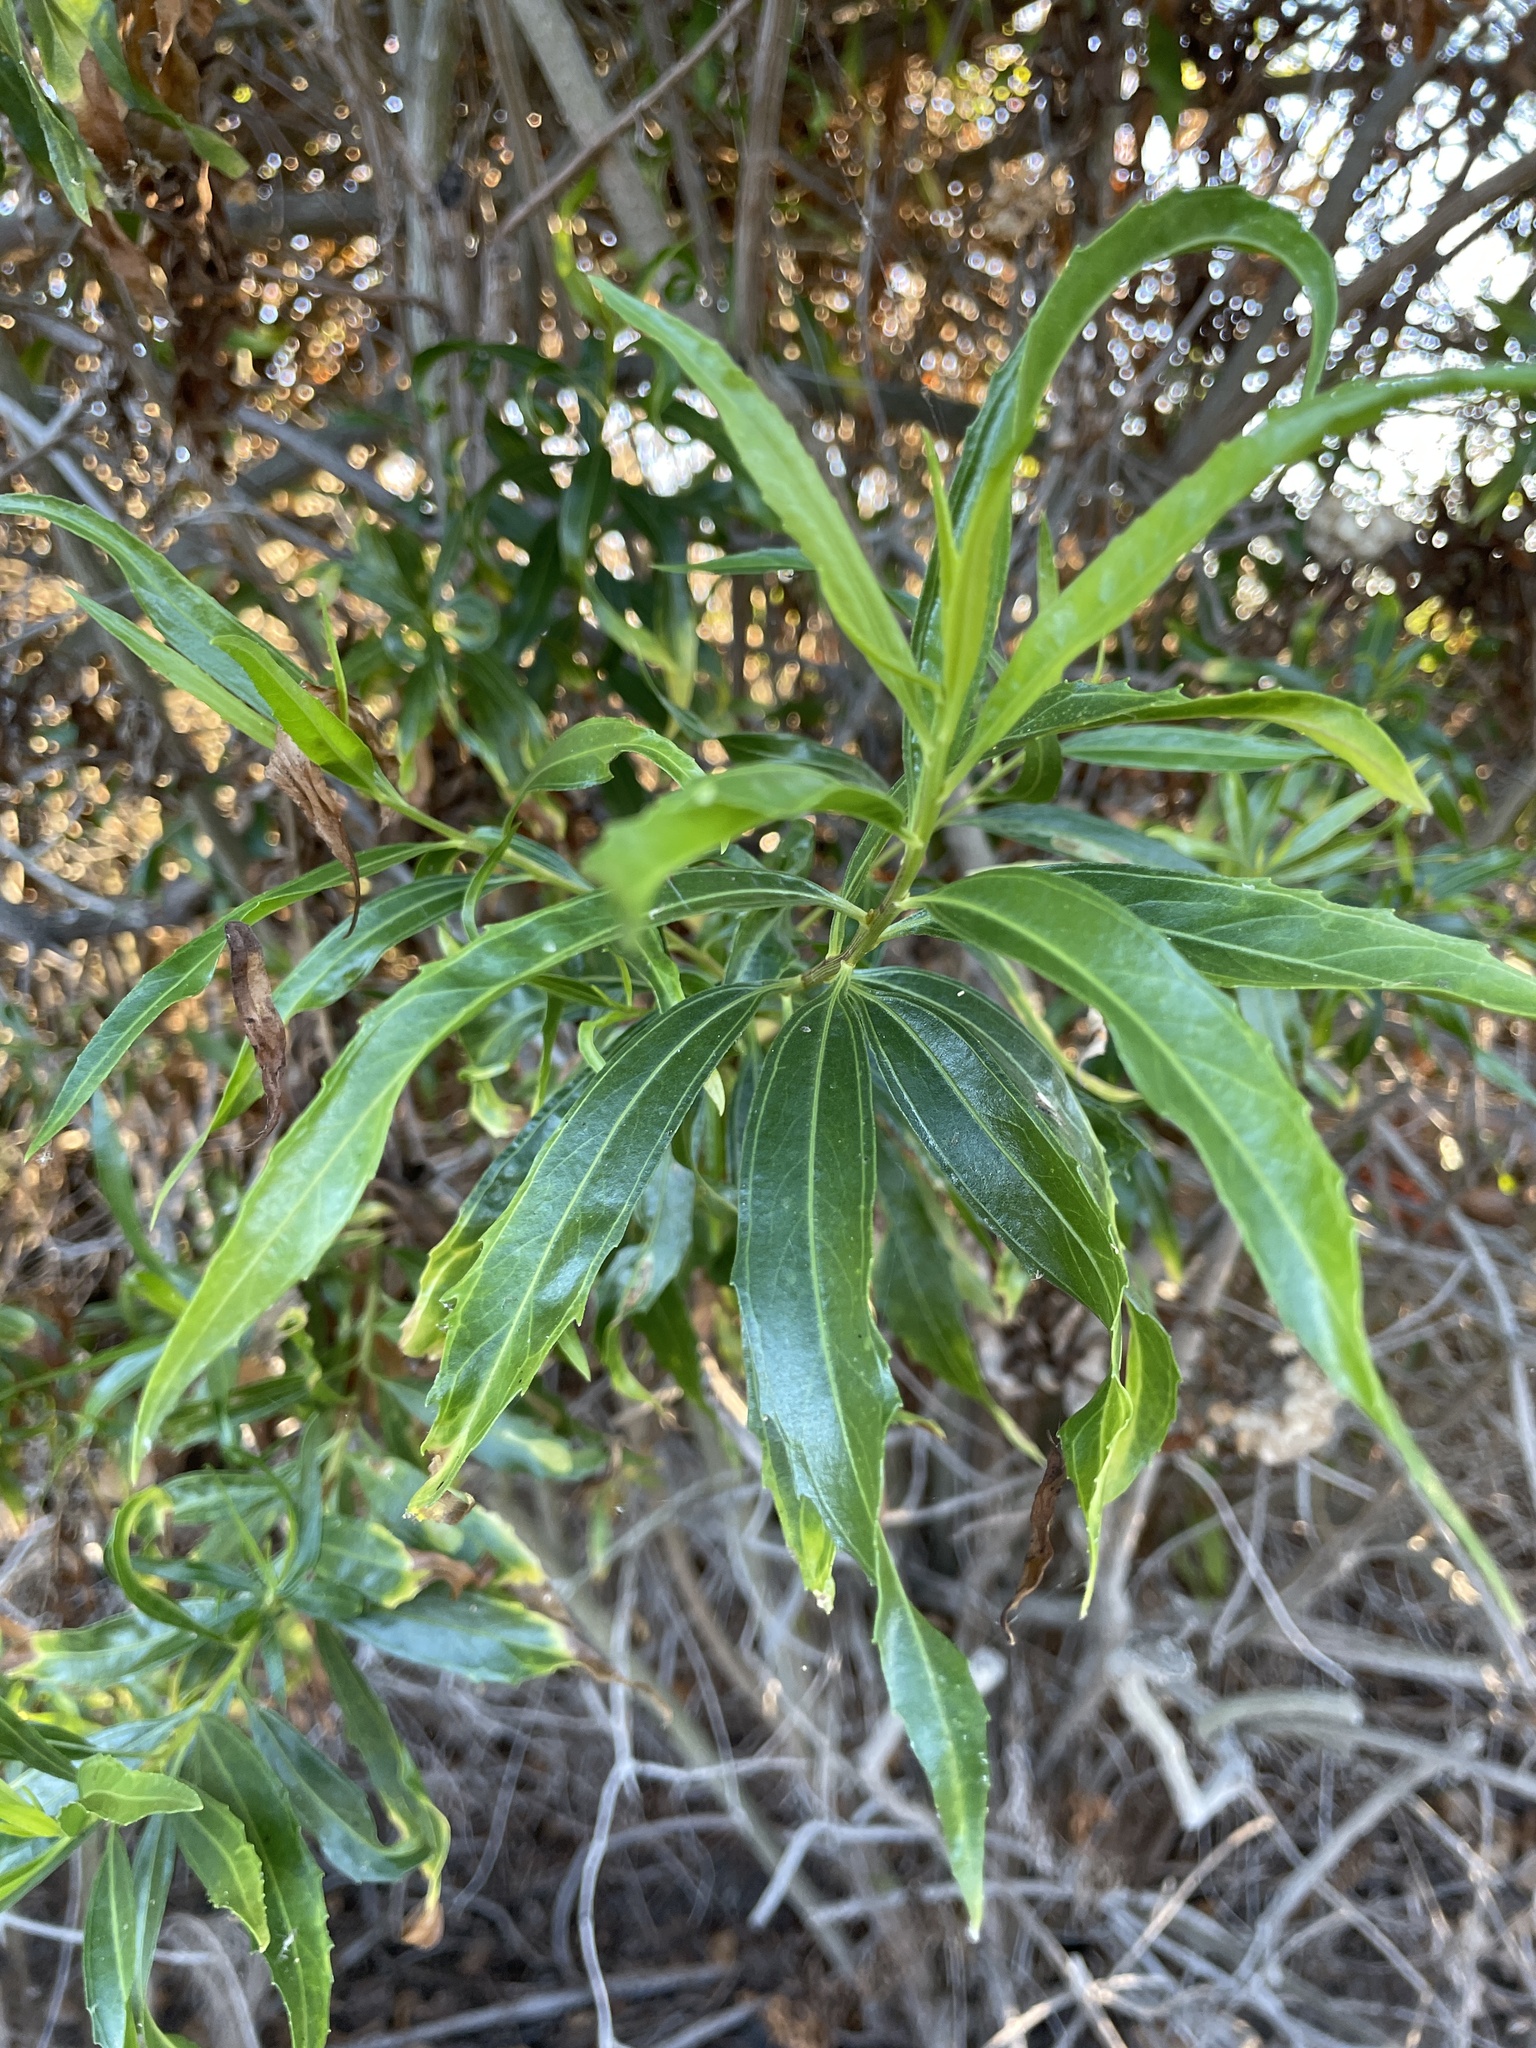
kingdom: Plantae
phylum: Tracheophyta
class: Magnoliopsida
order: Asterales
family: Asteraceae
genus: Baccharis
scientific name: Baccharis salicifolia
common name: Sticky baccharis
